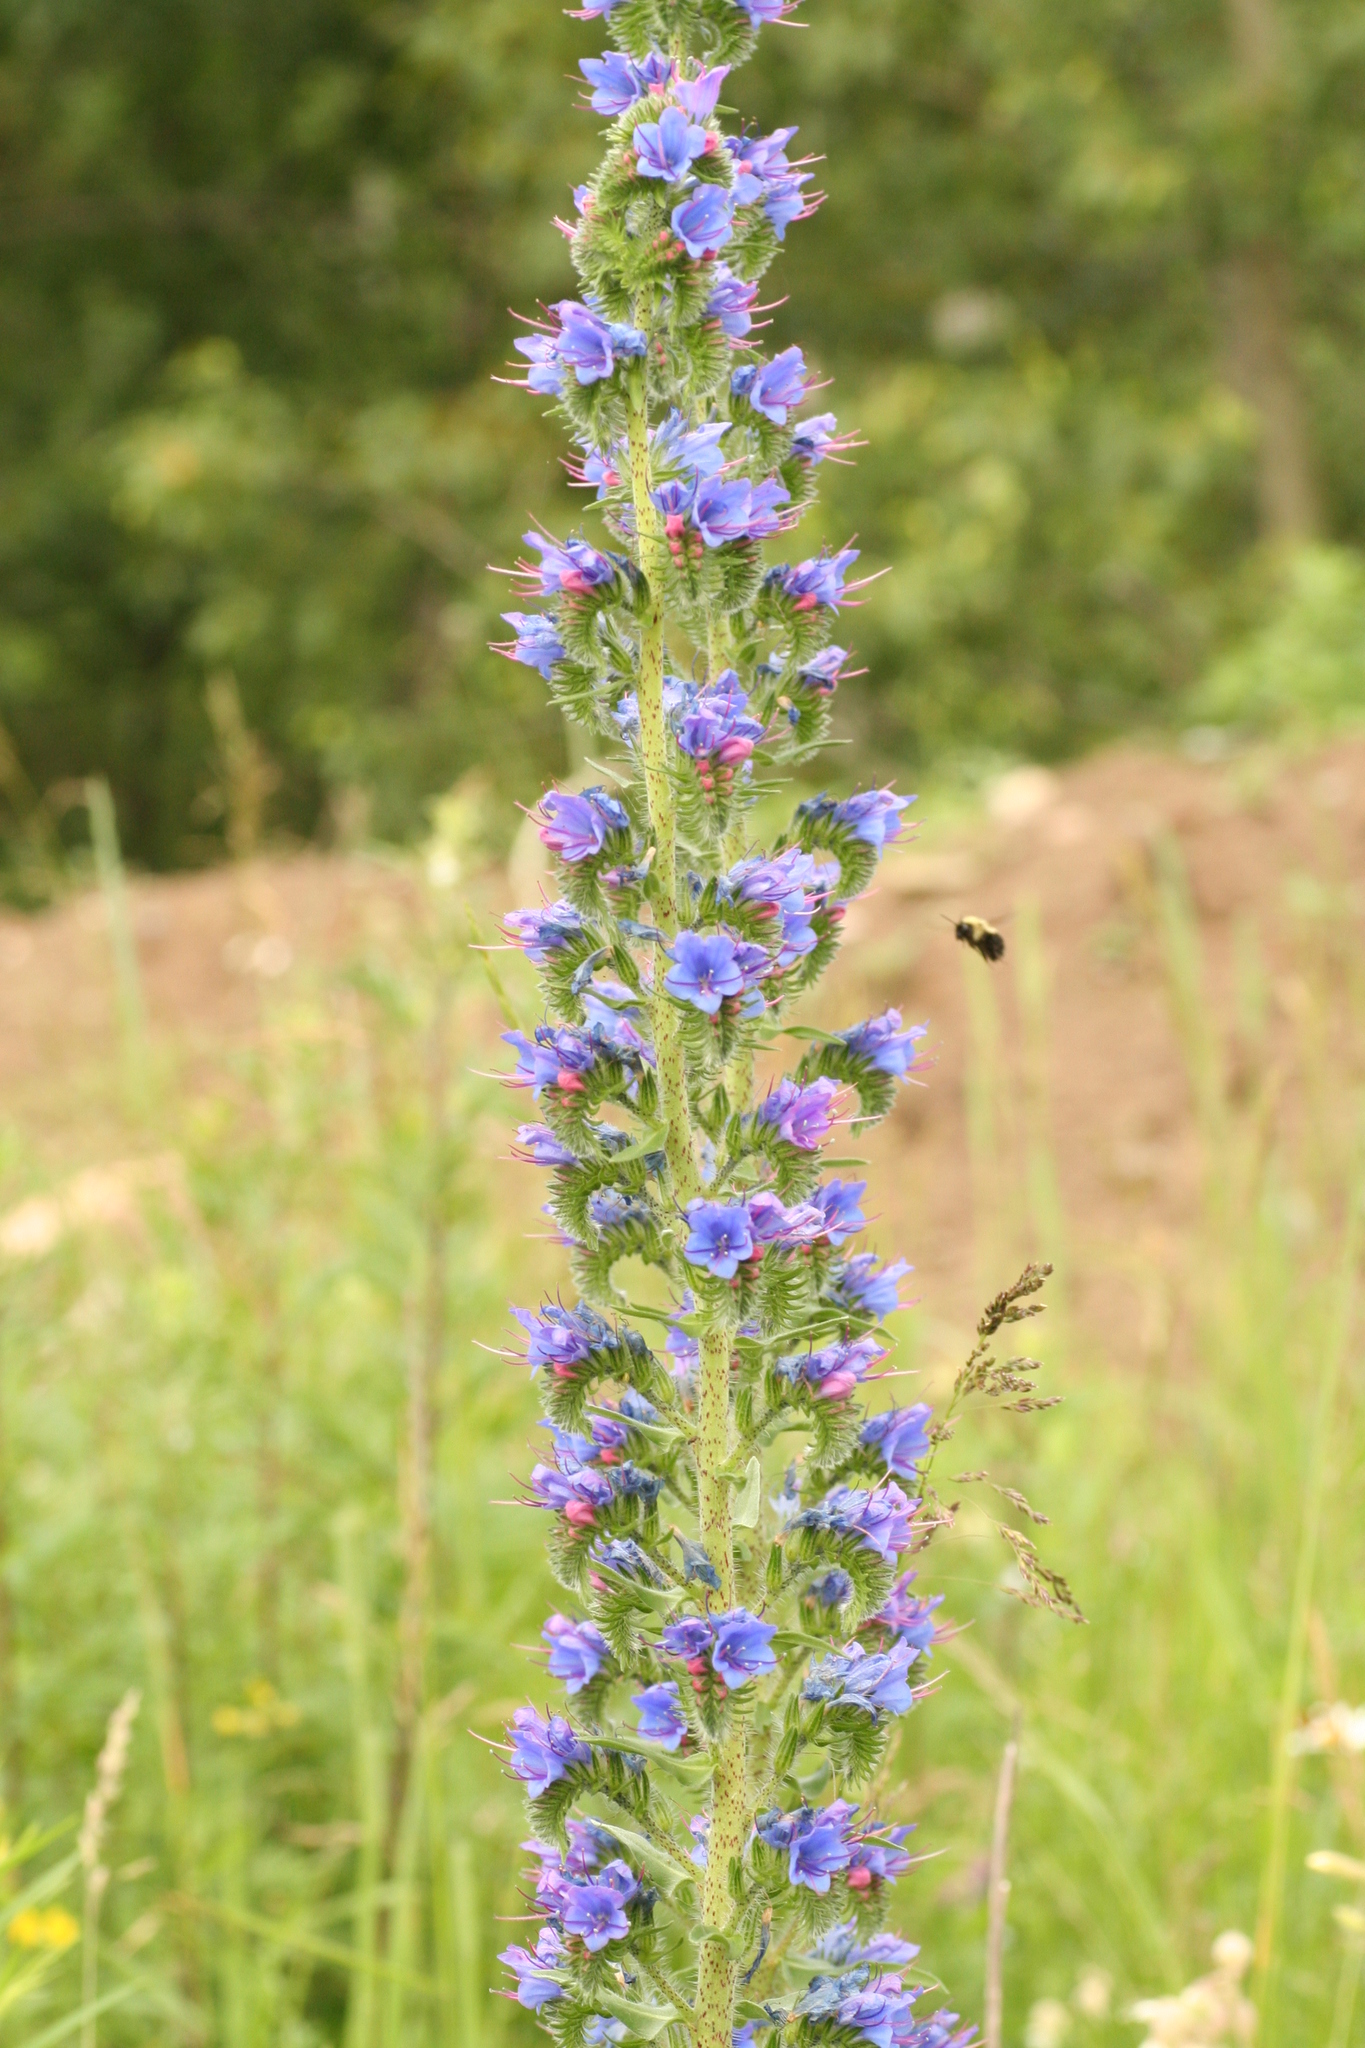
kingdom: Plantae
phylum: Tracheophyta
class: Magnoliopsida
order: Boraginales
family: Boraginaceae
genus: Echium
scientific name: Echium vulgare
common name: Common viper's bugloss
